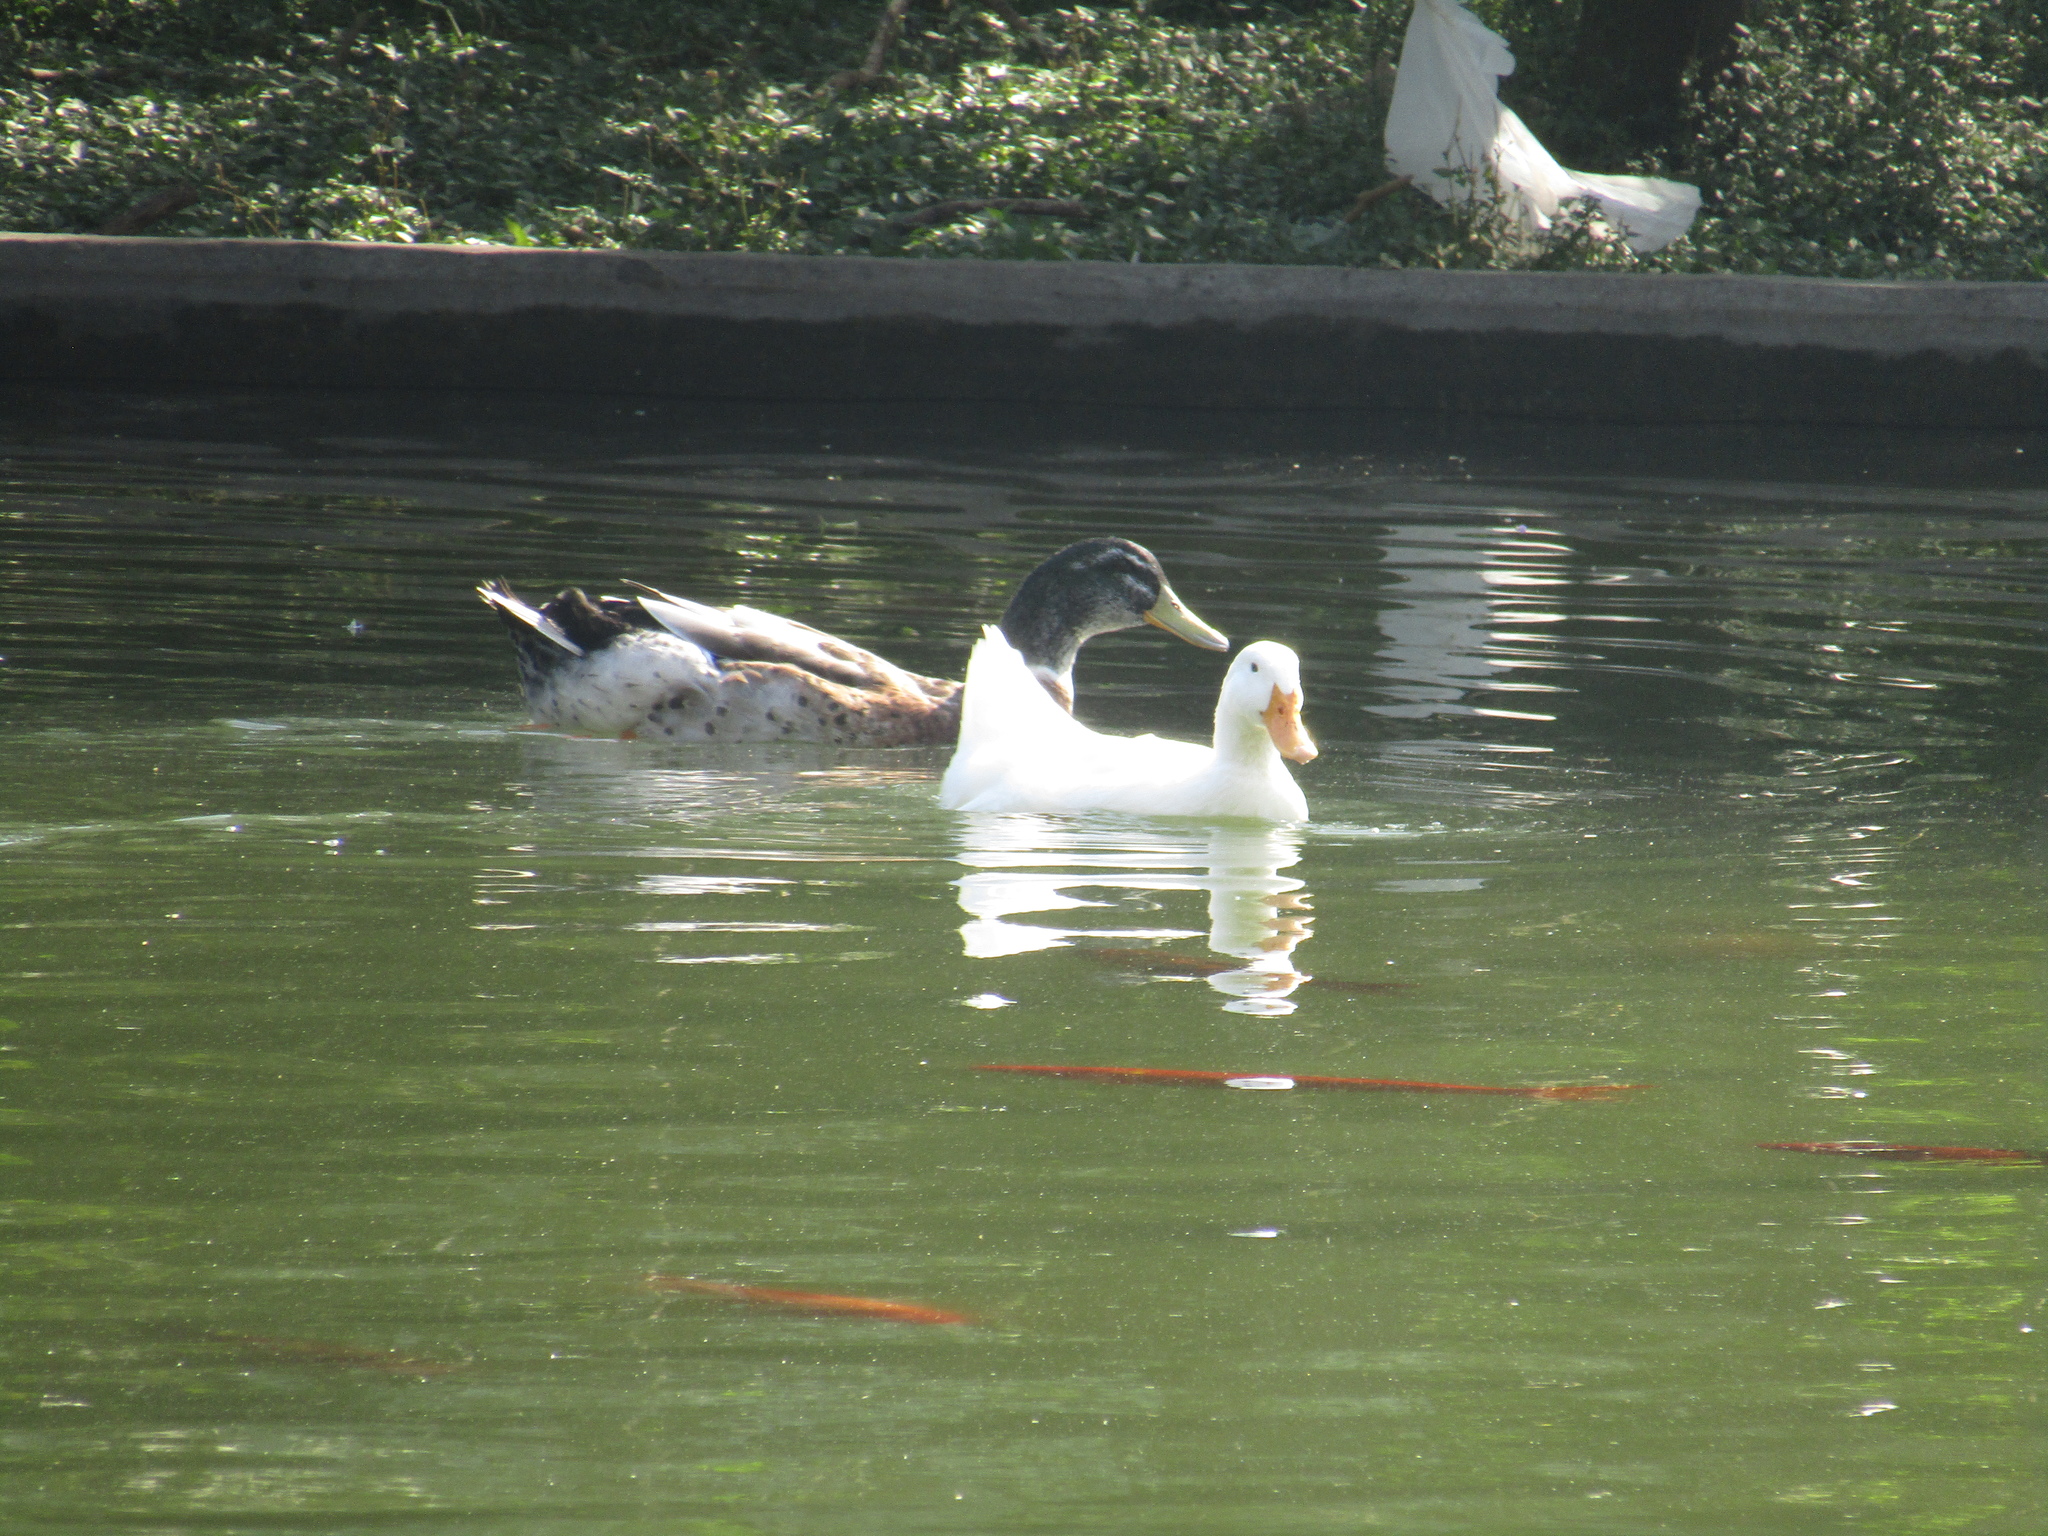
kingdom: Animalia
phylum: Chordata
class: Aves
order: Anseriformes
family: Anatidae
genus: Anas
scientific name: Anas platyrhynchos
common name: Mallard
